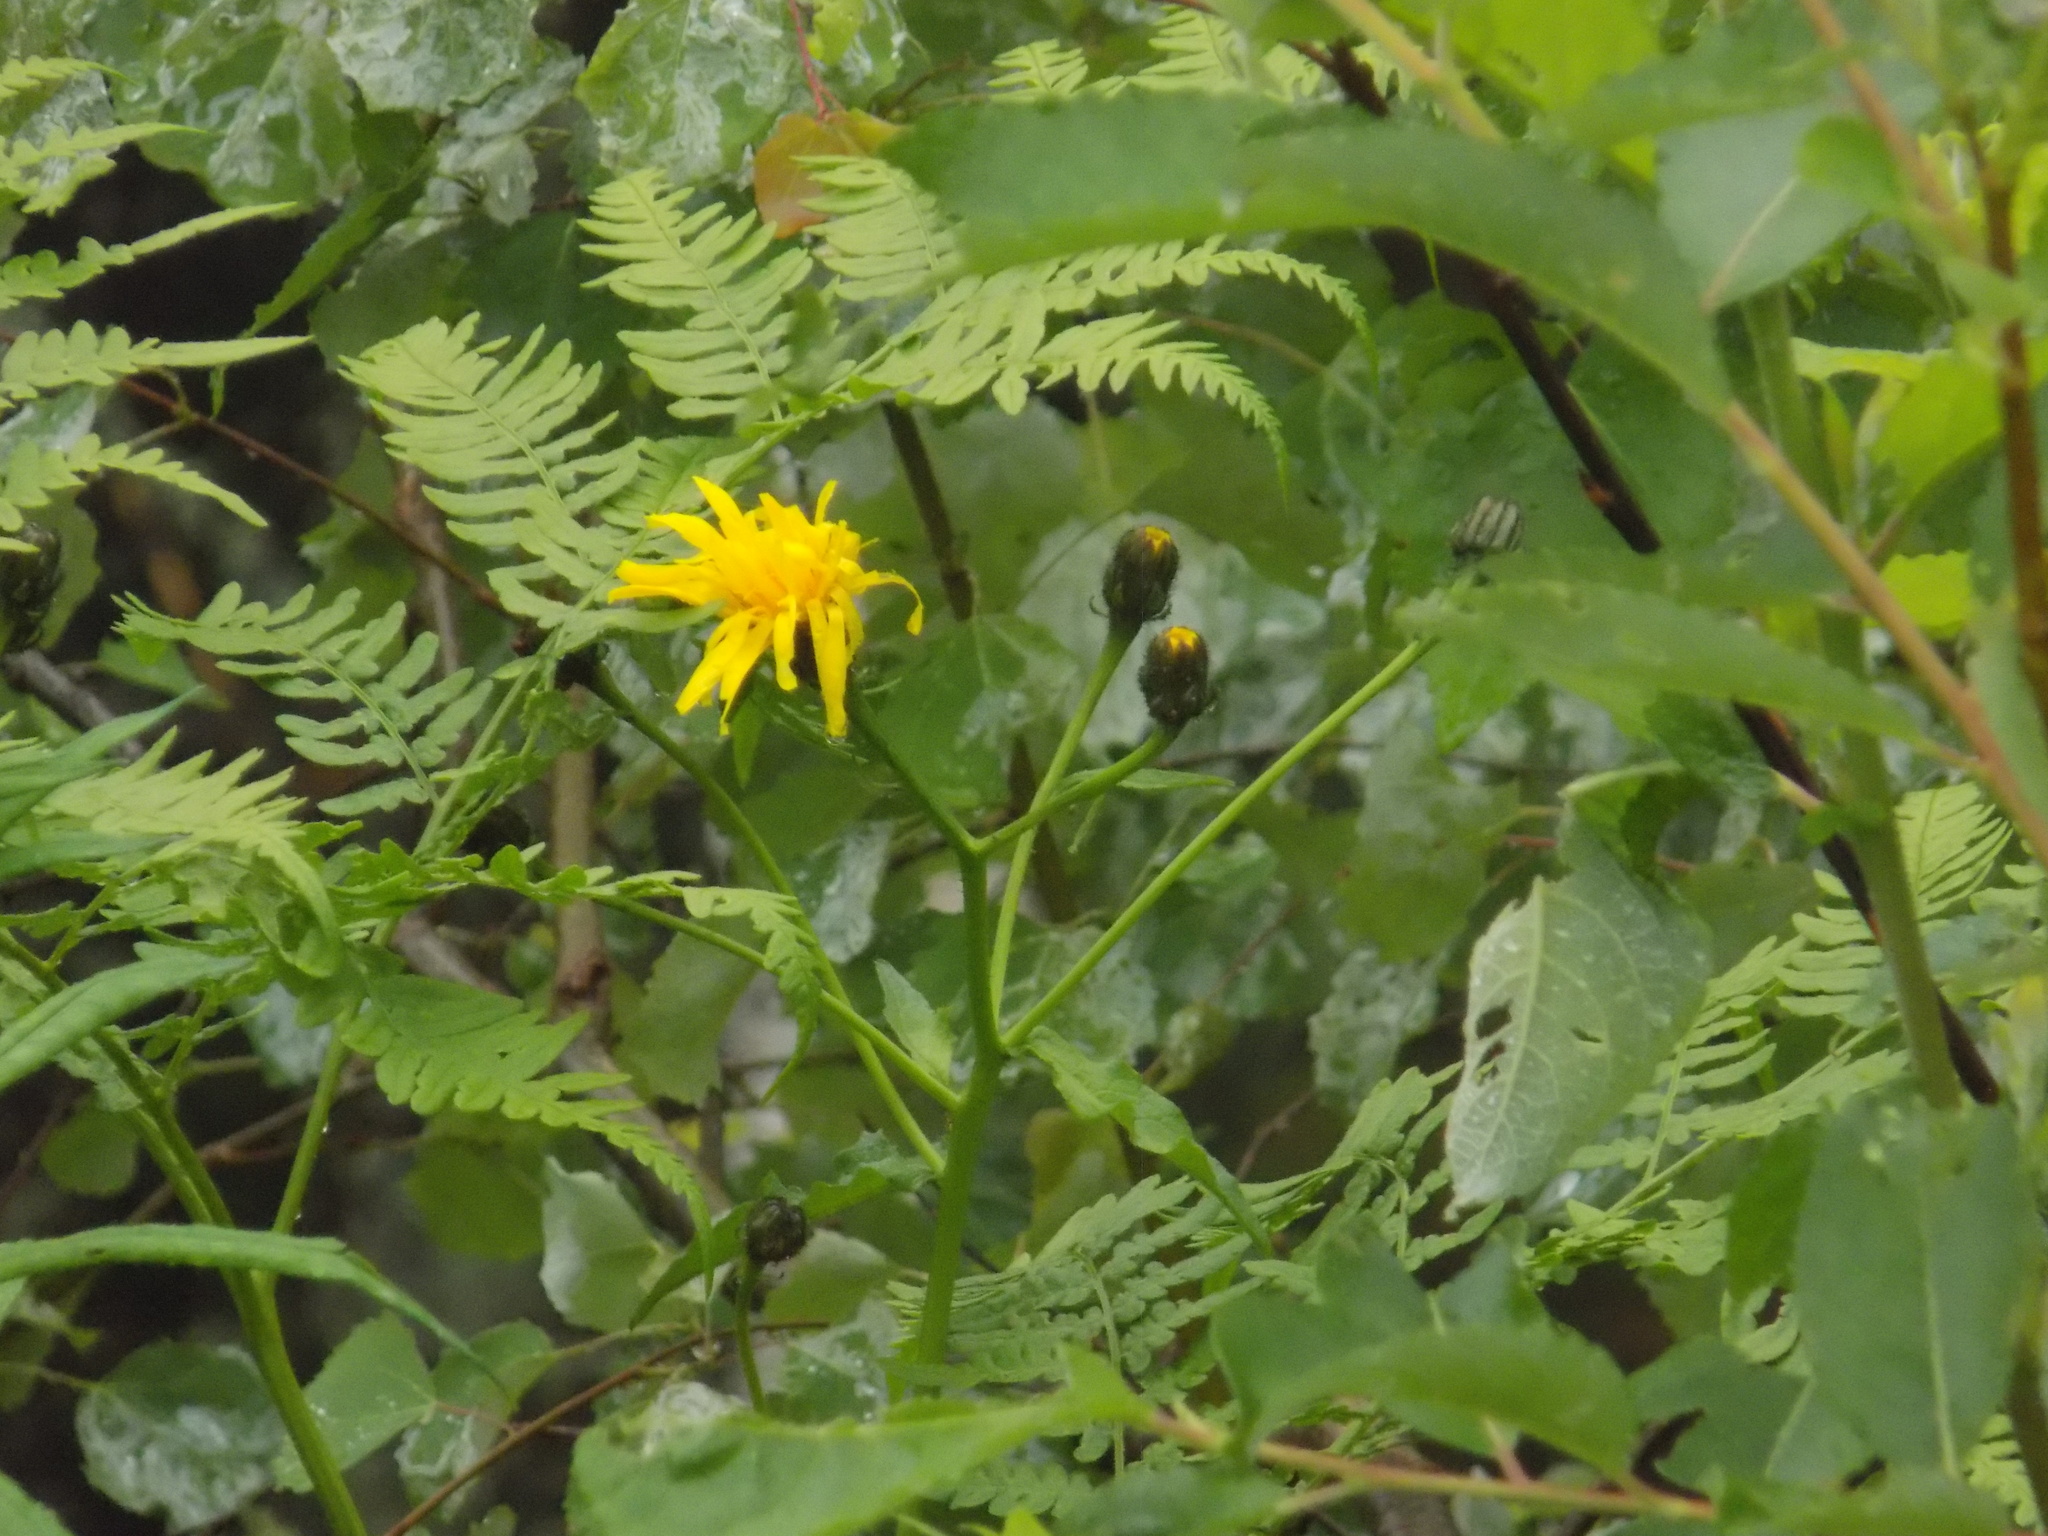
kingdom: Plantae
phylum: Tracheophyta
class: Magnoliopsida
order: Asterales
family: Asteraceae
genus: Crepis
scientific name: Crepis sibirica
